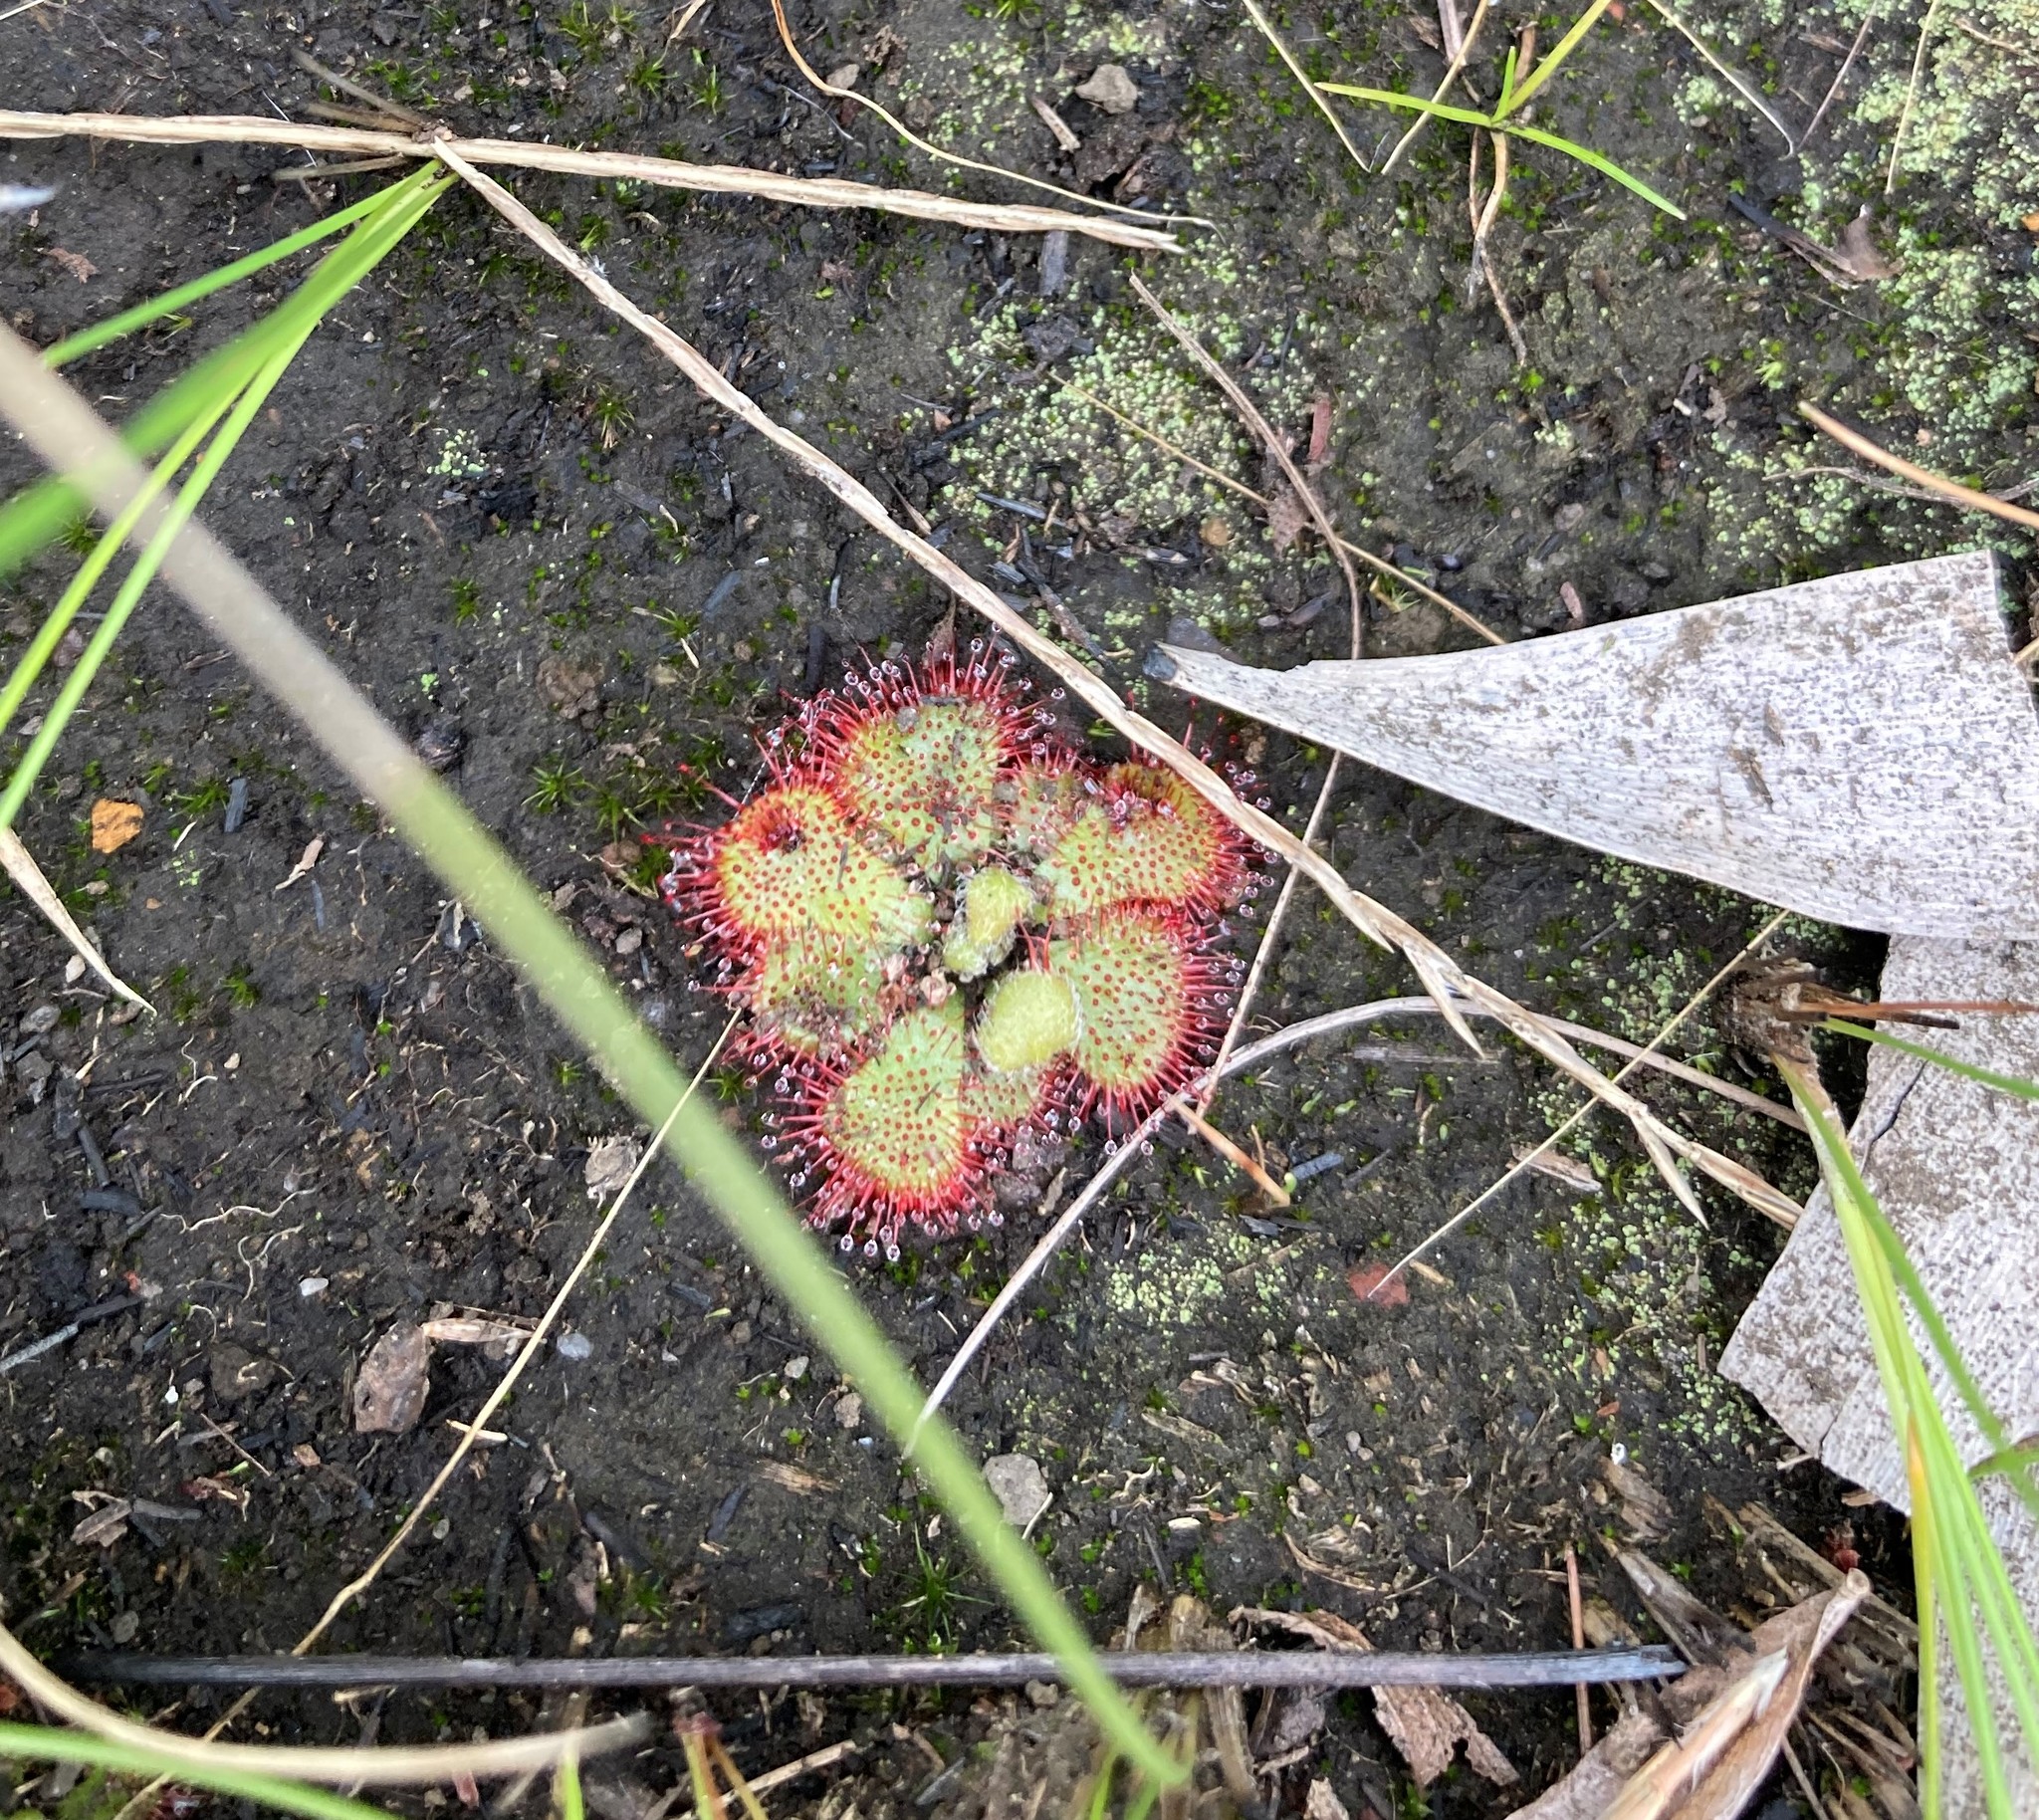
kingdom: Plantae
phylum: Tracheophyta
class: Magnoliopsida
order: Caryophyllales
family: Droseraceae
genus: Drosera
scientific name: Drosera natalensis
